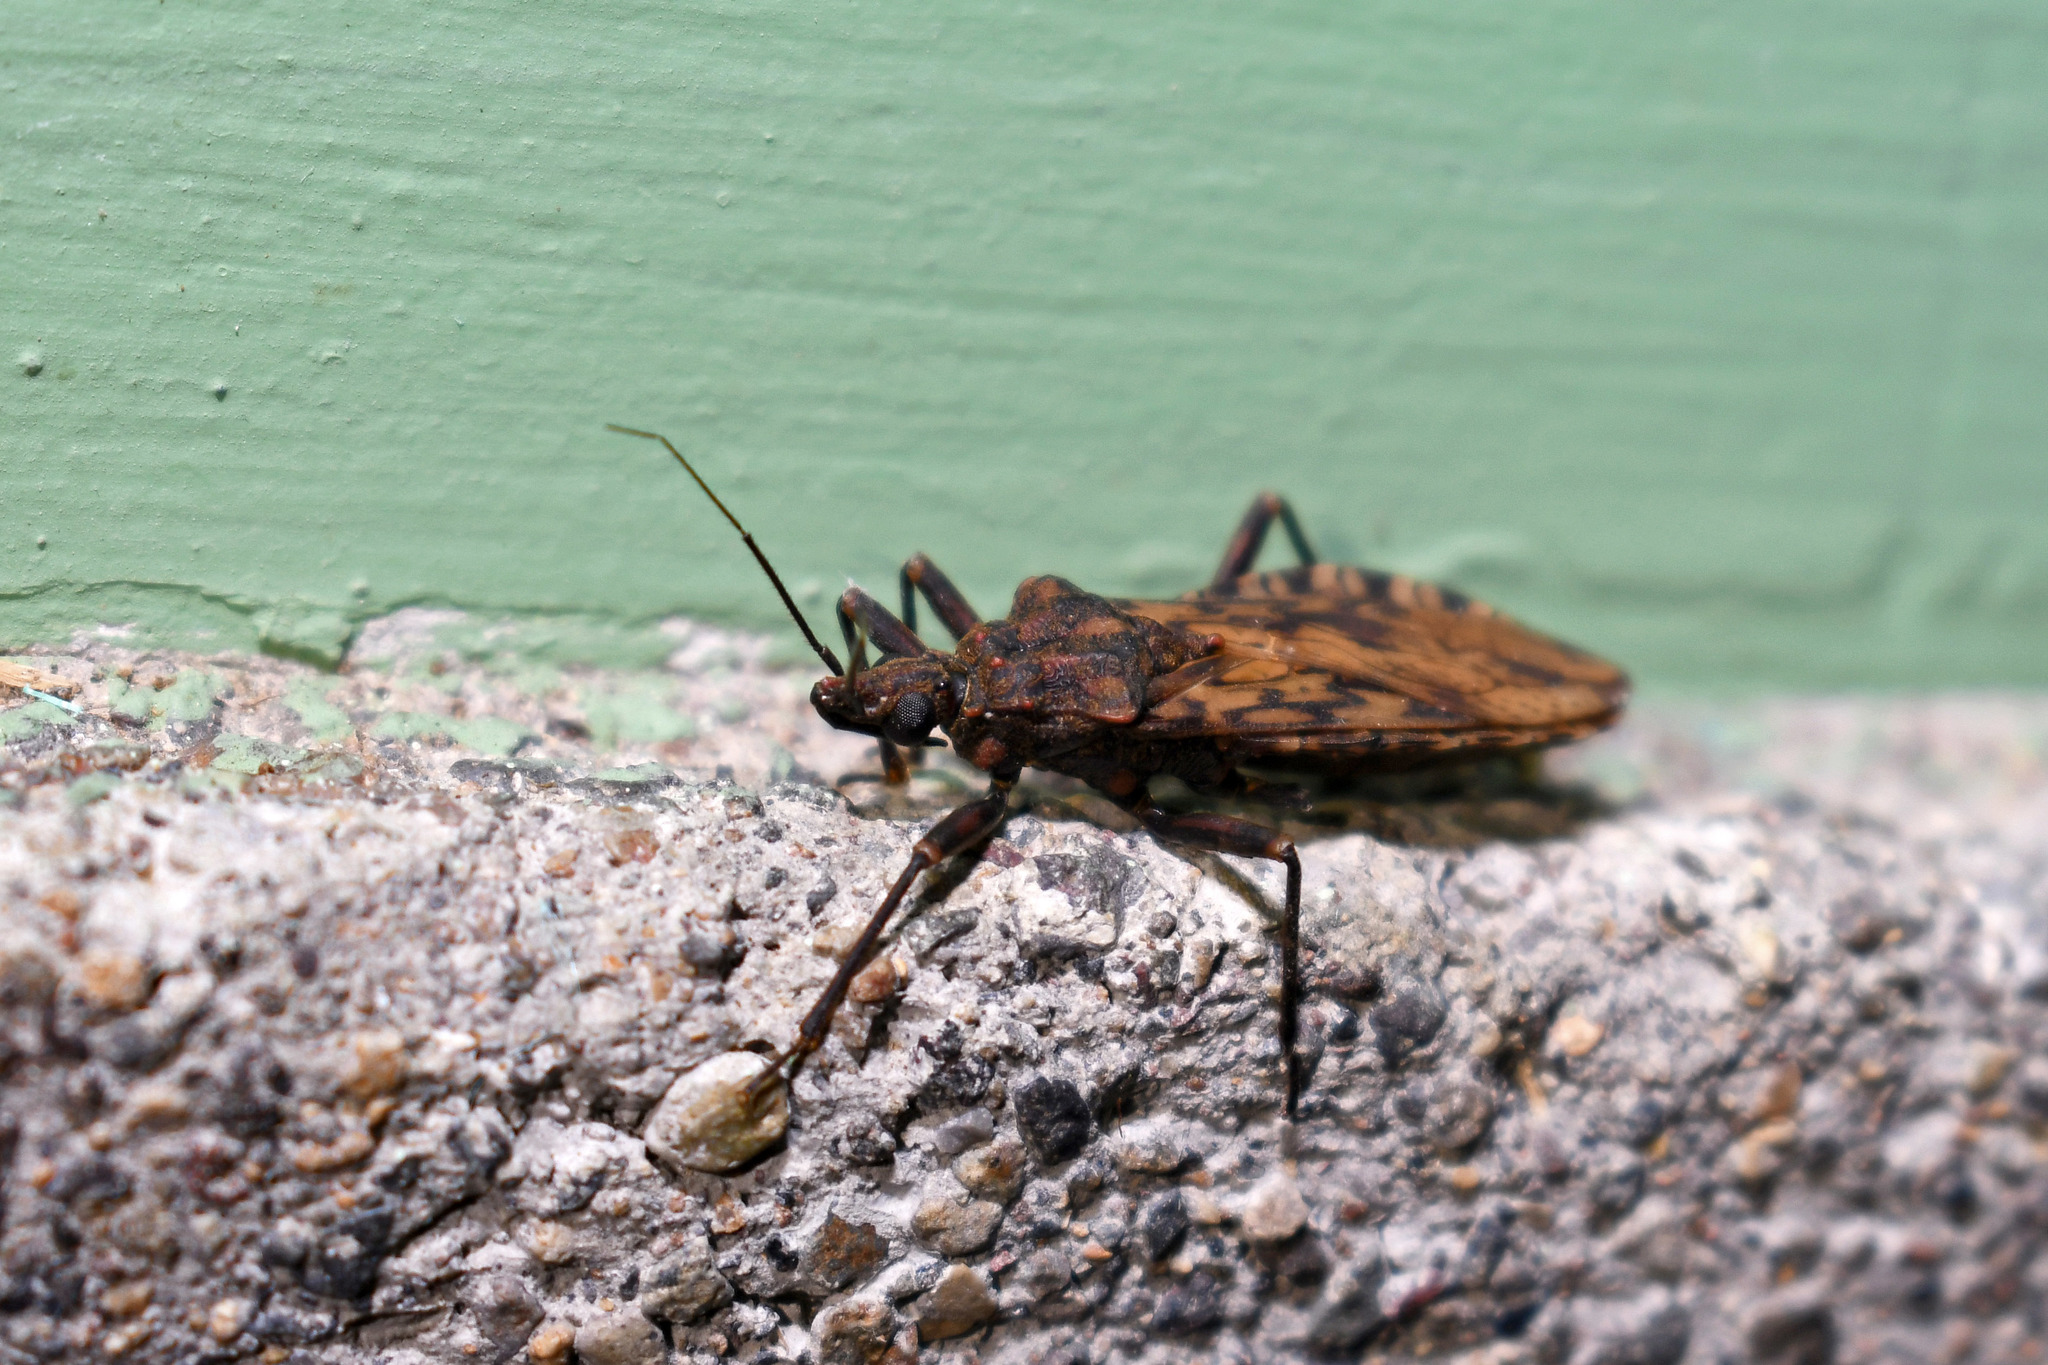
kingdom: Animalia
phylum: Arthropoda
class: Insecta
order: Hemiptera
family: Reduviidae
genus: Panstrongylus
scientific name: Panstrongylus rufotuberculatus
